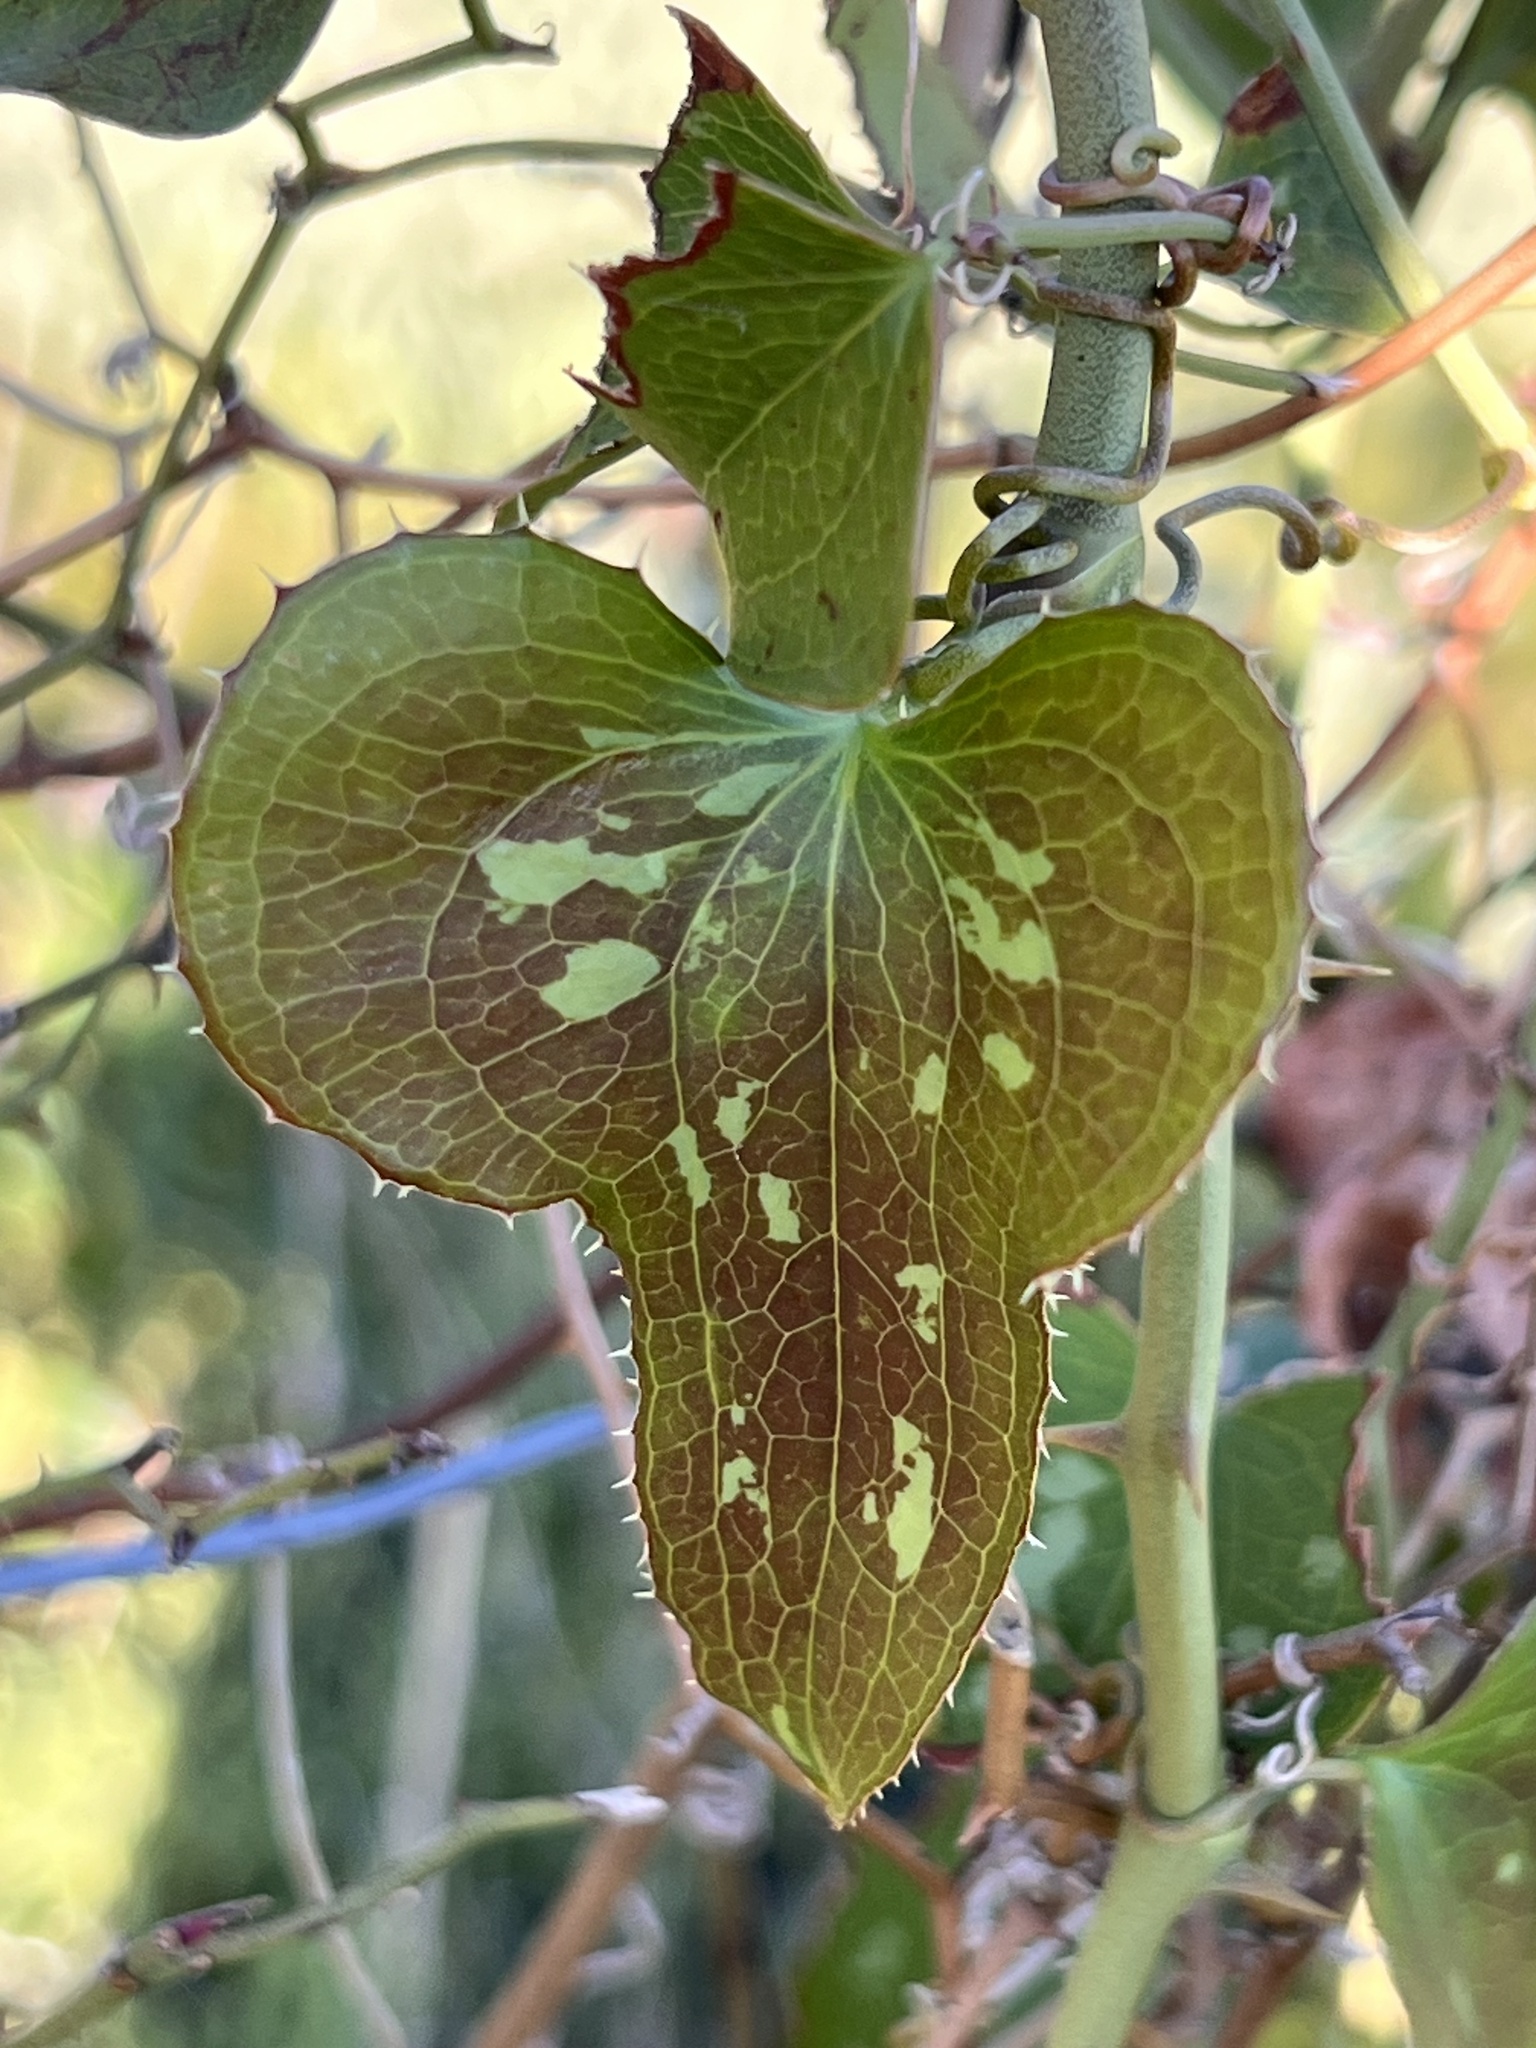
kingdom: Plantae
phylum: Tracheophyta
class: Liliopsida
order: Liliales
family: Smilacaceae
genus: Smilax
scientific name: Smilax bona-nox
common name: Catbrier
